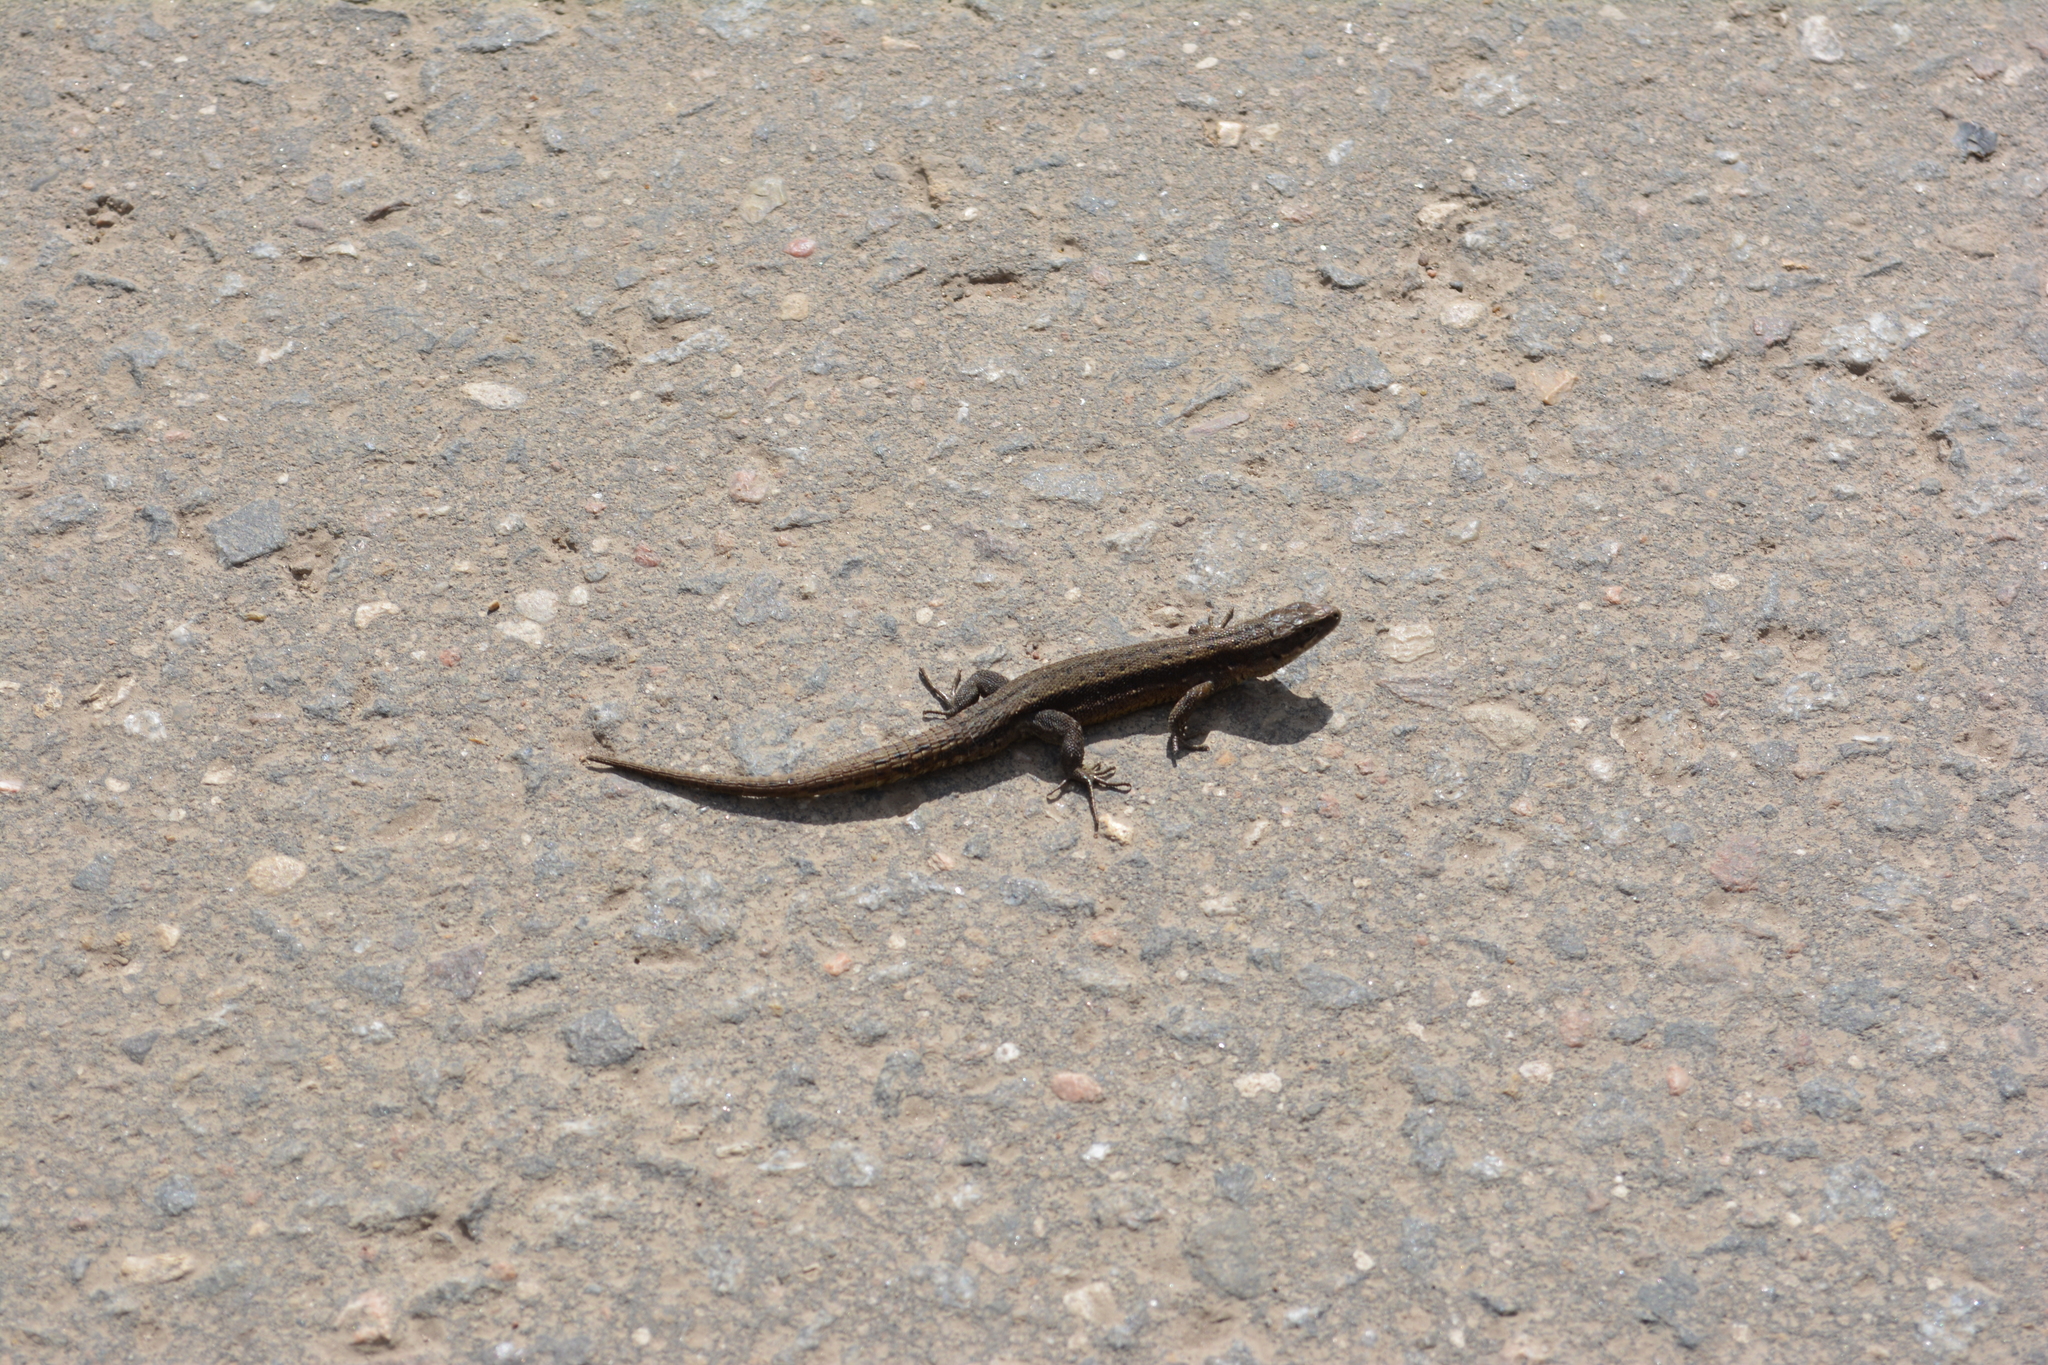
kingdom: Animalia
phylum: Chordata
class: Squamata
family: Lacertidae
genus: Zootoca
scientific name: Zootoca vivipara
